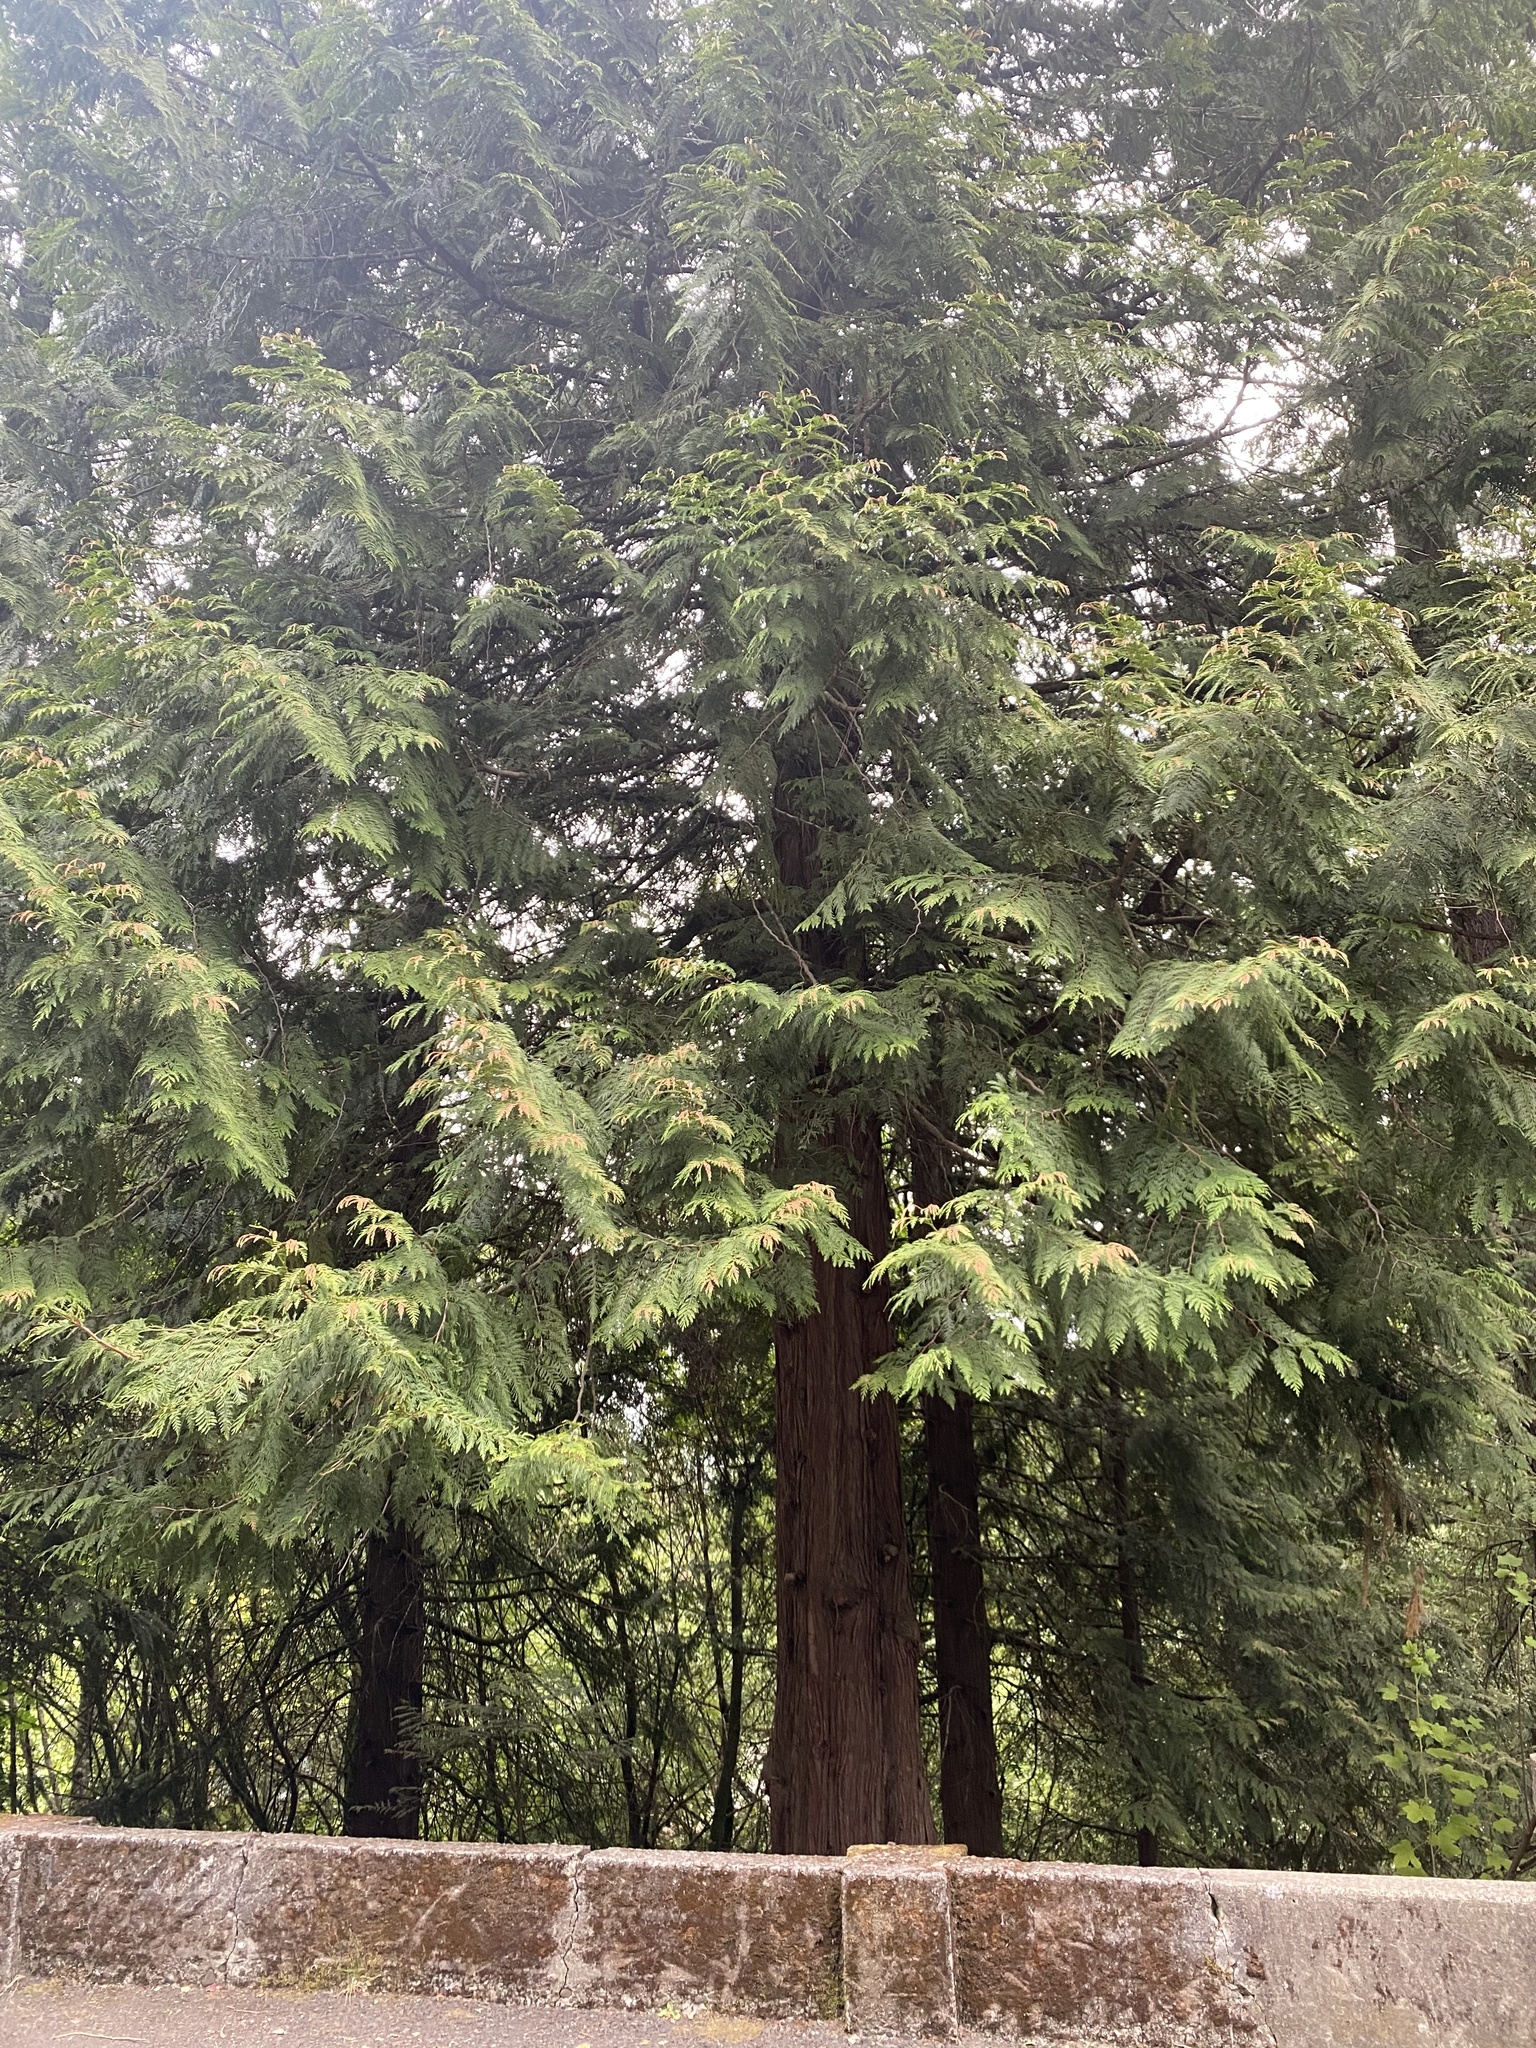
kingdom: Plantae
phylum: Tracheophyta
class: Pinopsida
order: Pinales
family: Cupressaceae
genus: Thuja
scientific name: Thuja plicata
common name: Western red-cedar
